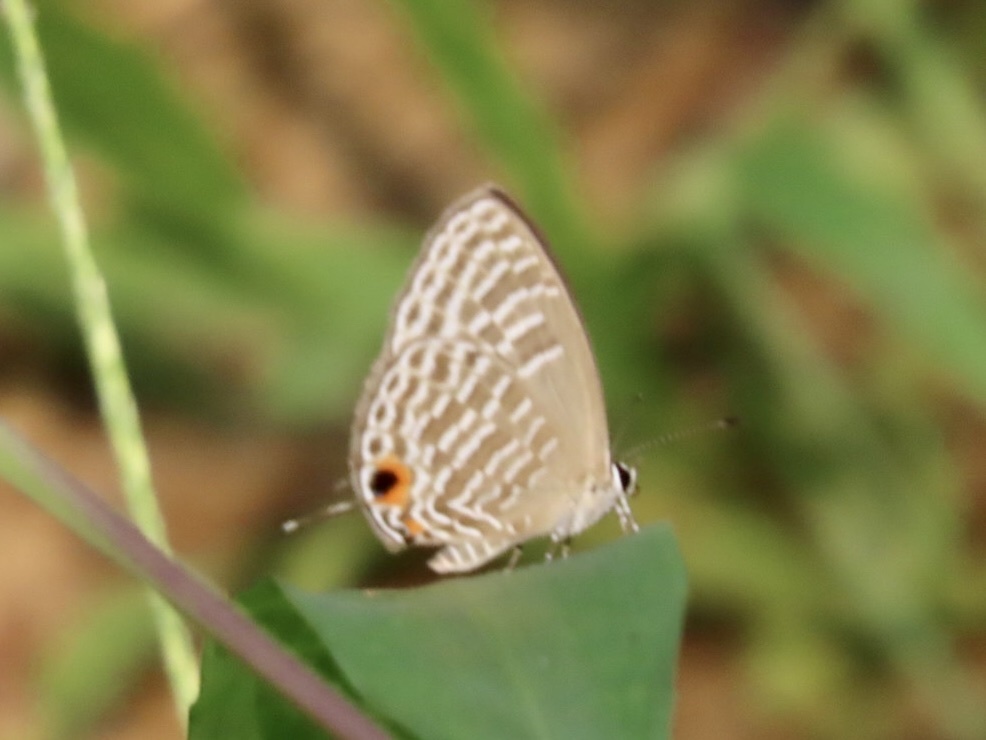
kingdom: Animalia
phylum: Arthropoda
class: Insecta
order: Lepidoptera
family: Lycaenidae
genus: Jamides
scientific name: Jamides alecto
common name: Metallic cerulean
